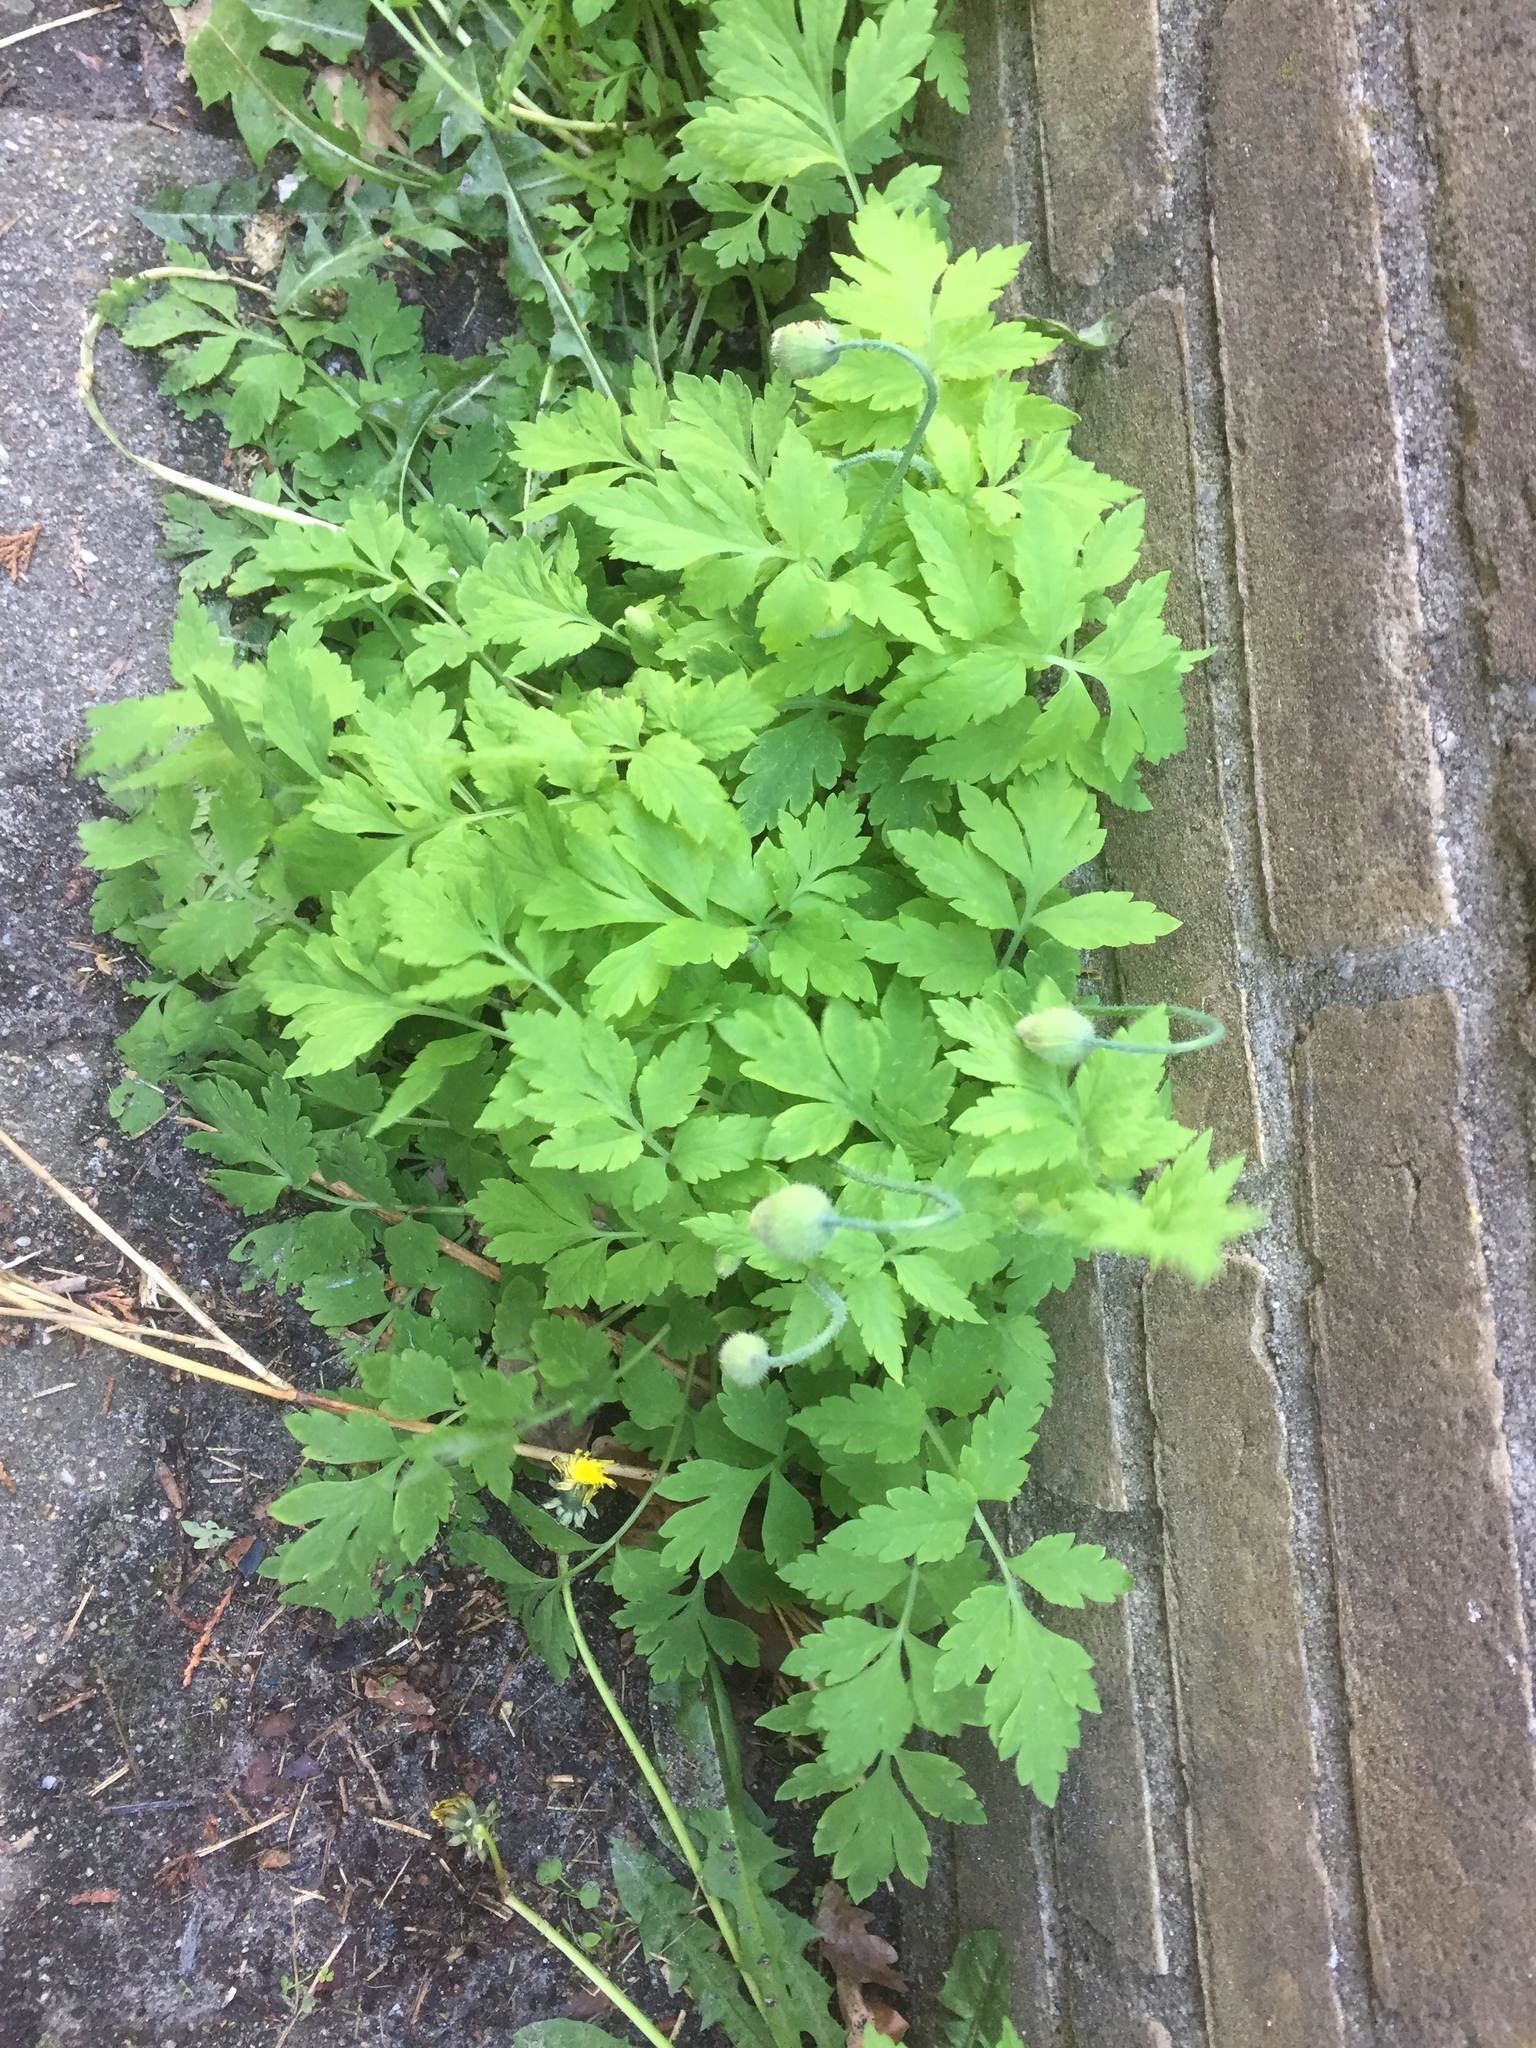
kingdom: Plantae
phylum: Tracheophyta
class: Magnoliopsida
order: Ranunculales
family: Papaveraceae
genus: Papaver
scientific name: Papaver cambricum
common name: Poppy
